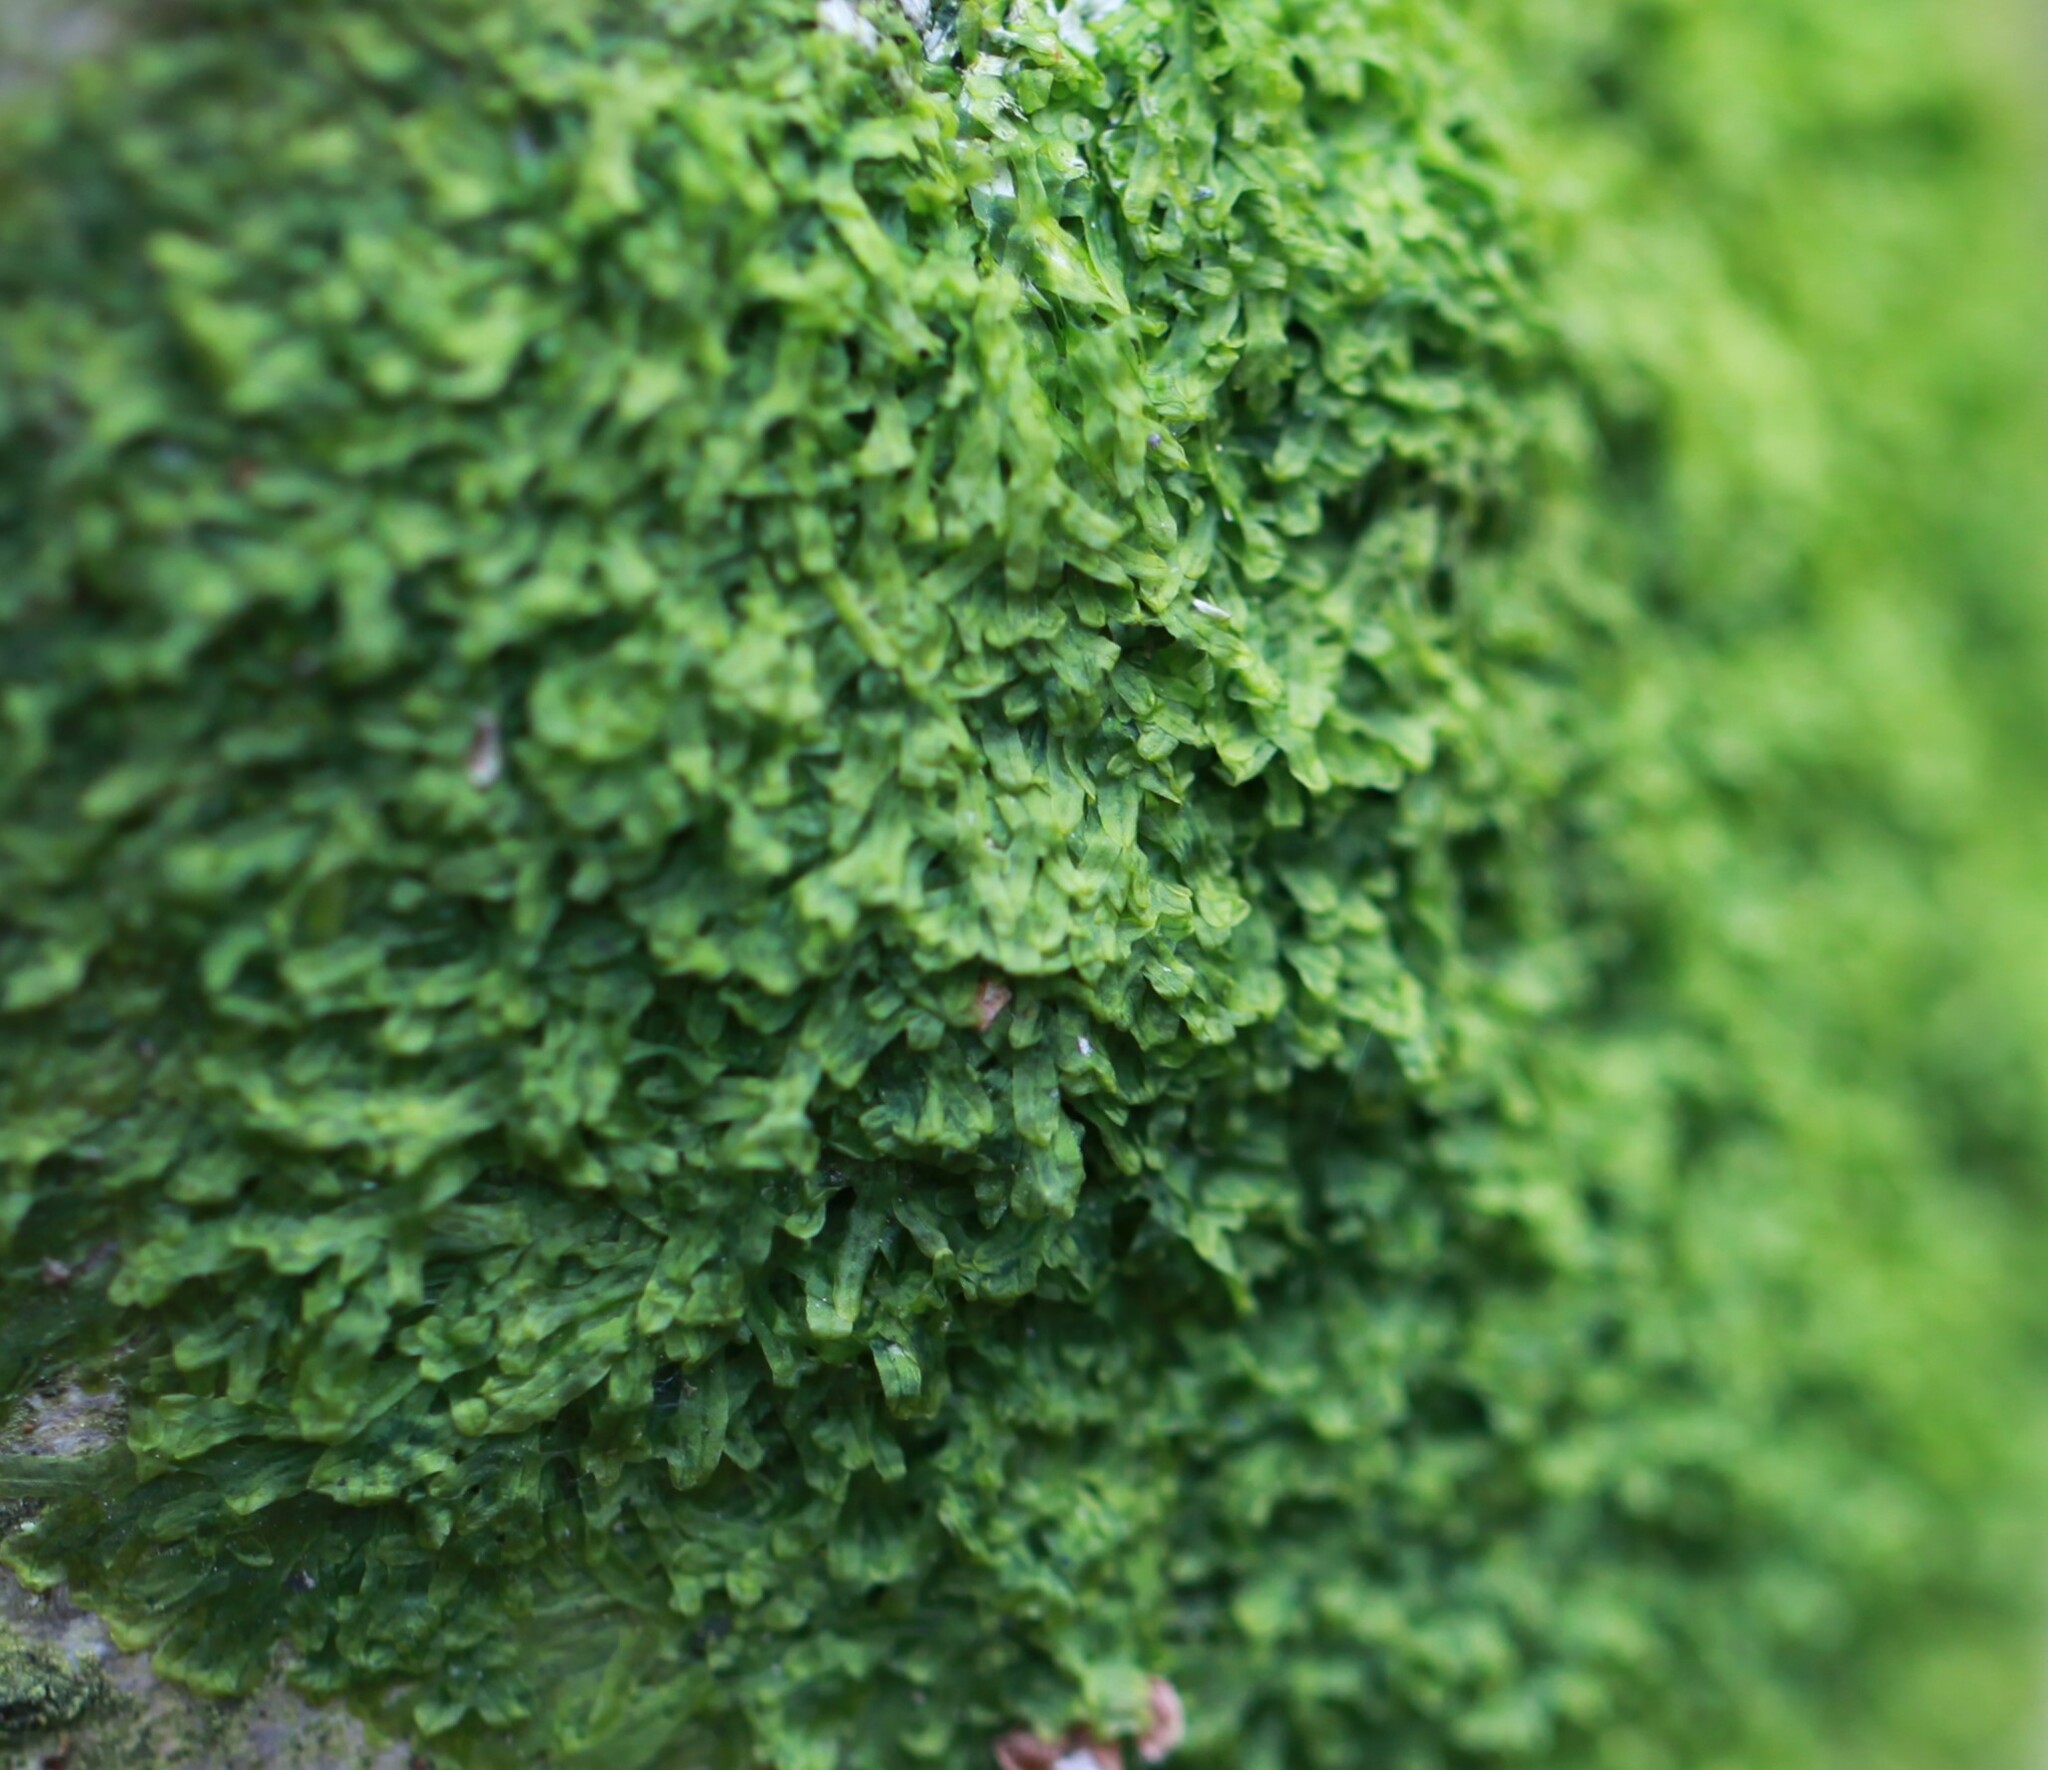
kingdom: Plantae
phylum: Marchantiophyta
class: Jungermanniopsida
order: Metzgeriales
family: Metzgeriaceae
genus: Metzgeria
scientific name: Metzgeria furcata
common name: Forked veilwort
